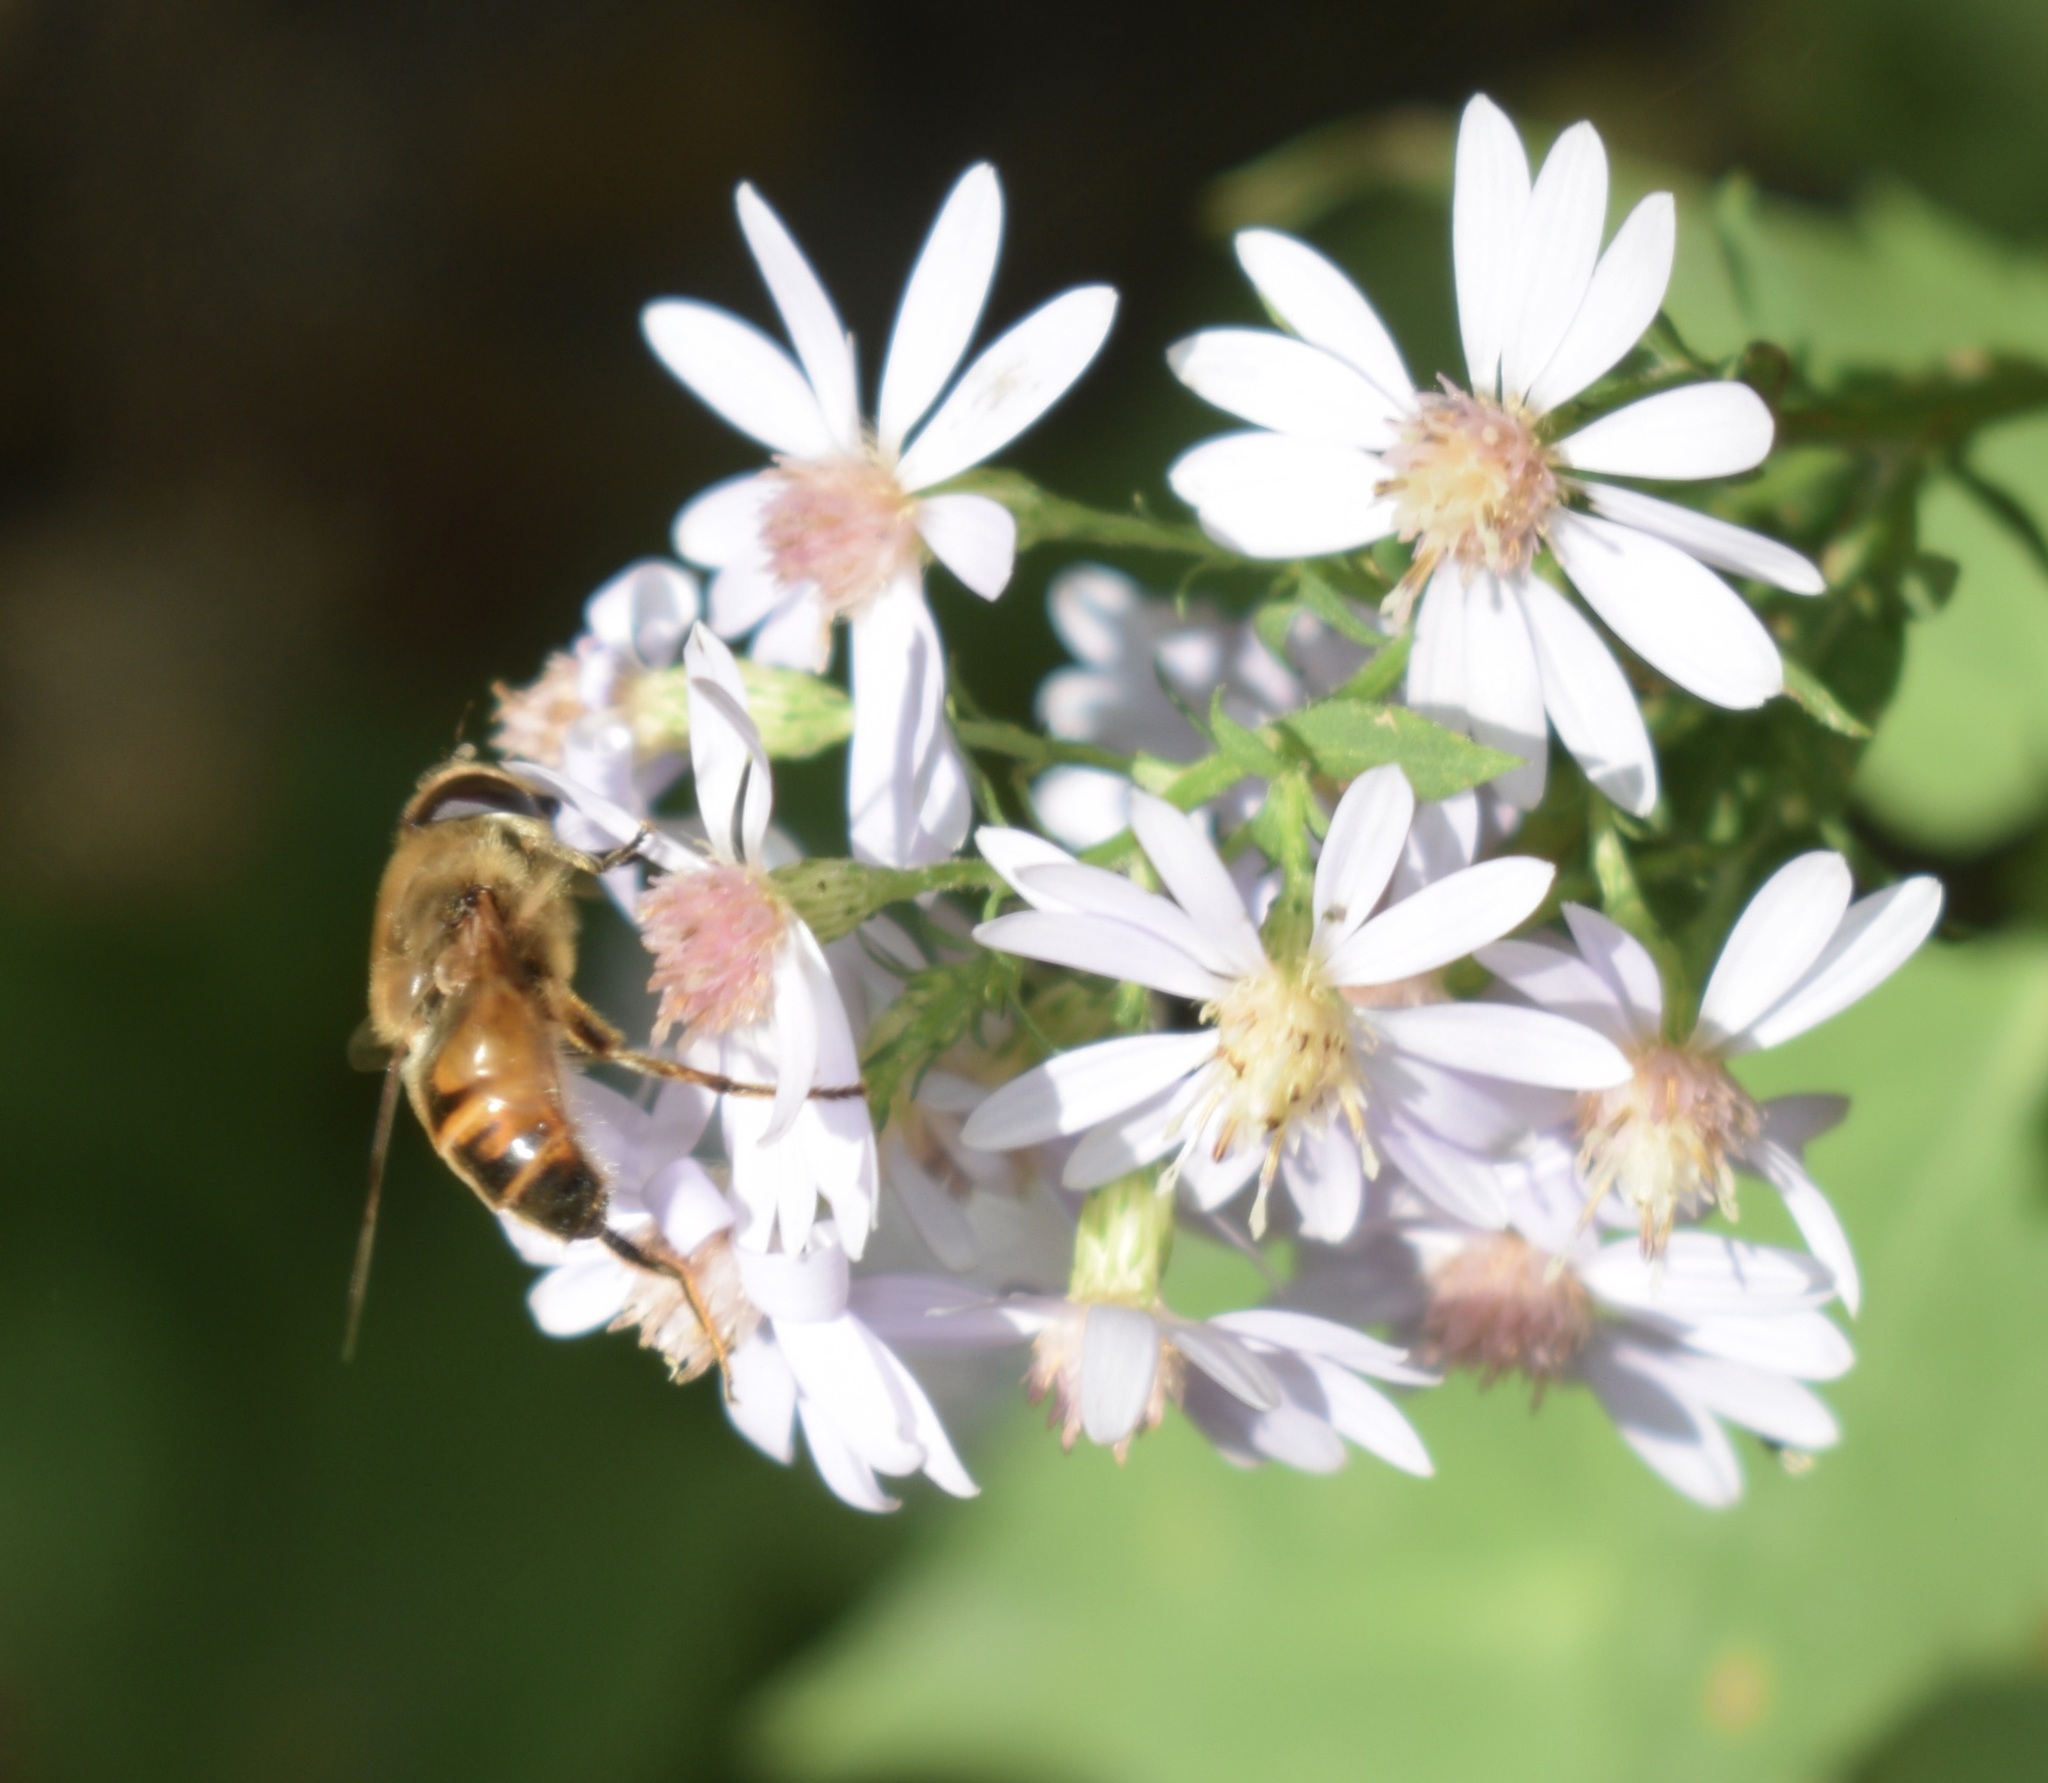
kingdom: Animalia
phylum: Arthropoda
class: Insecta
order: Diptera
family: Syrphidae
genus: Eristalis
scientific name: Eristalis tenax
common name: Drone fly
